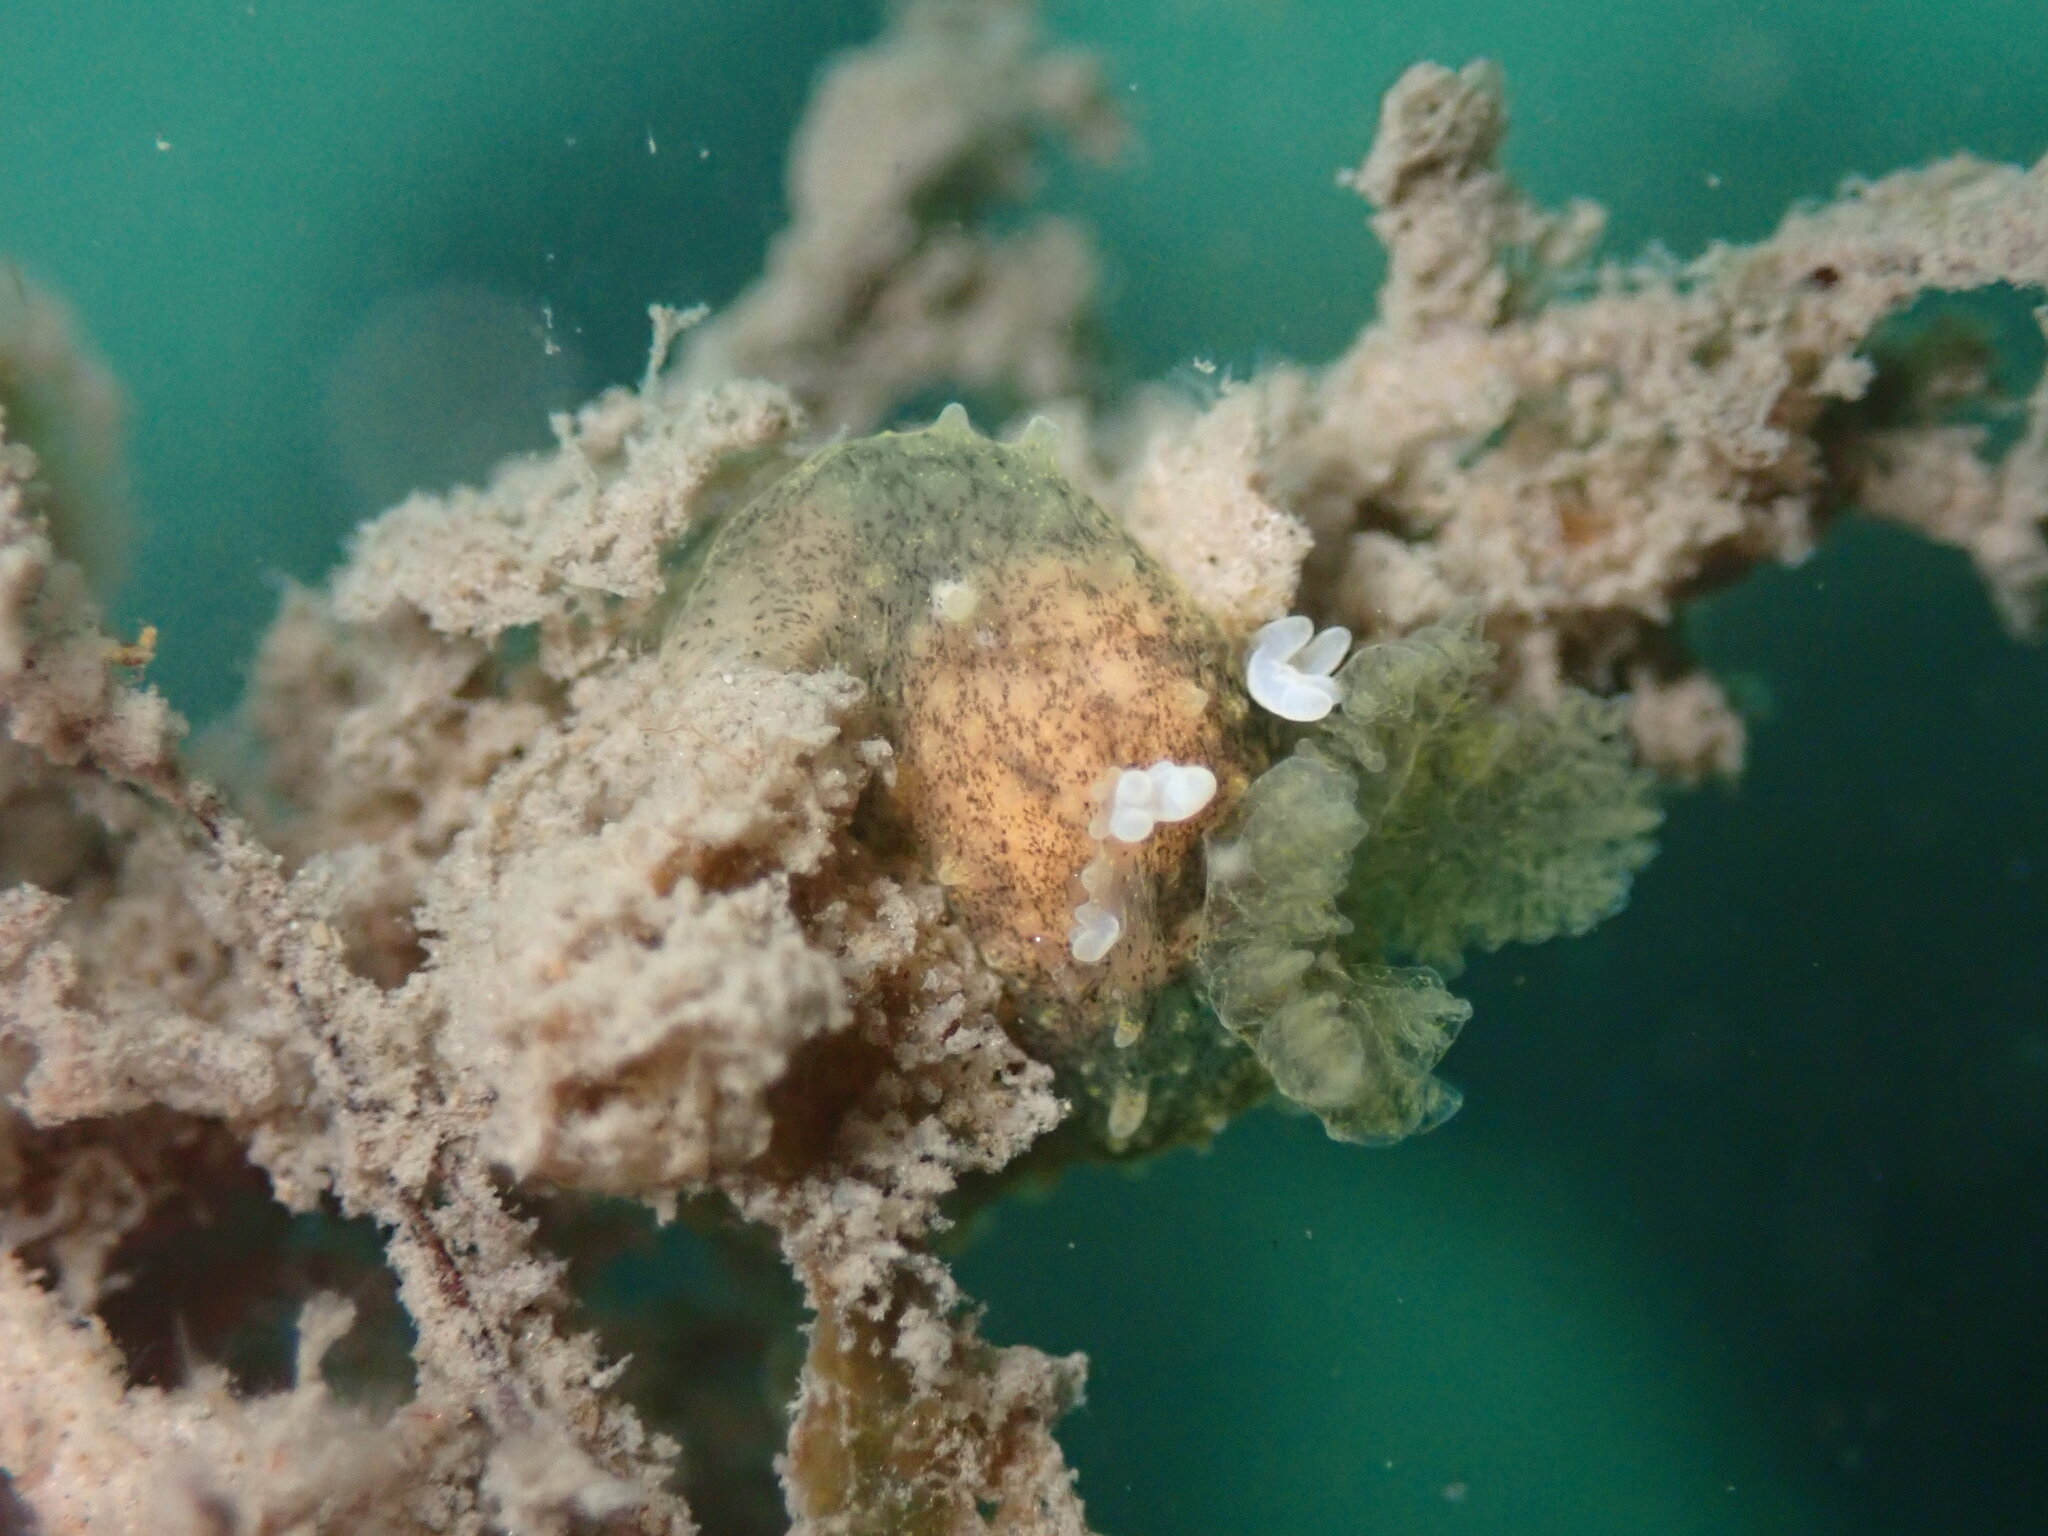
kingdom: Animalia
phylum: Mollusca
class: Gastropoda
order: Nudibranchia
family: Polyceridae
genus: Palio
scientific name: Palio zosterae
